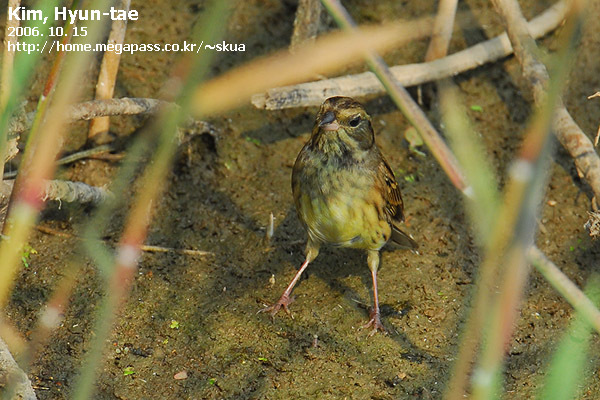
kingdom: Animalia
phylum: Chordata
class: Aves
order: Passeriformes
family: Emberizidae
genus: Emberiza
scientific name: Emberiza spodocephala
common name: Black-faced bunting
